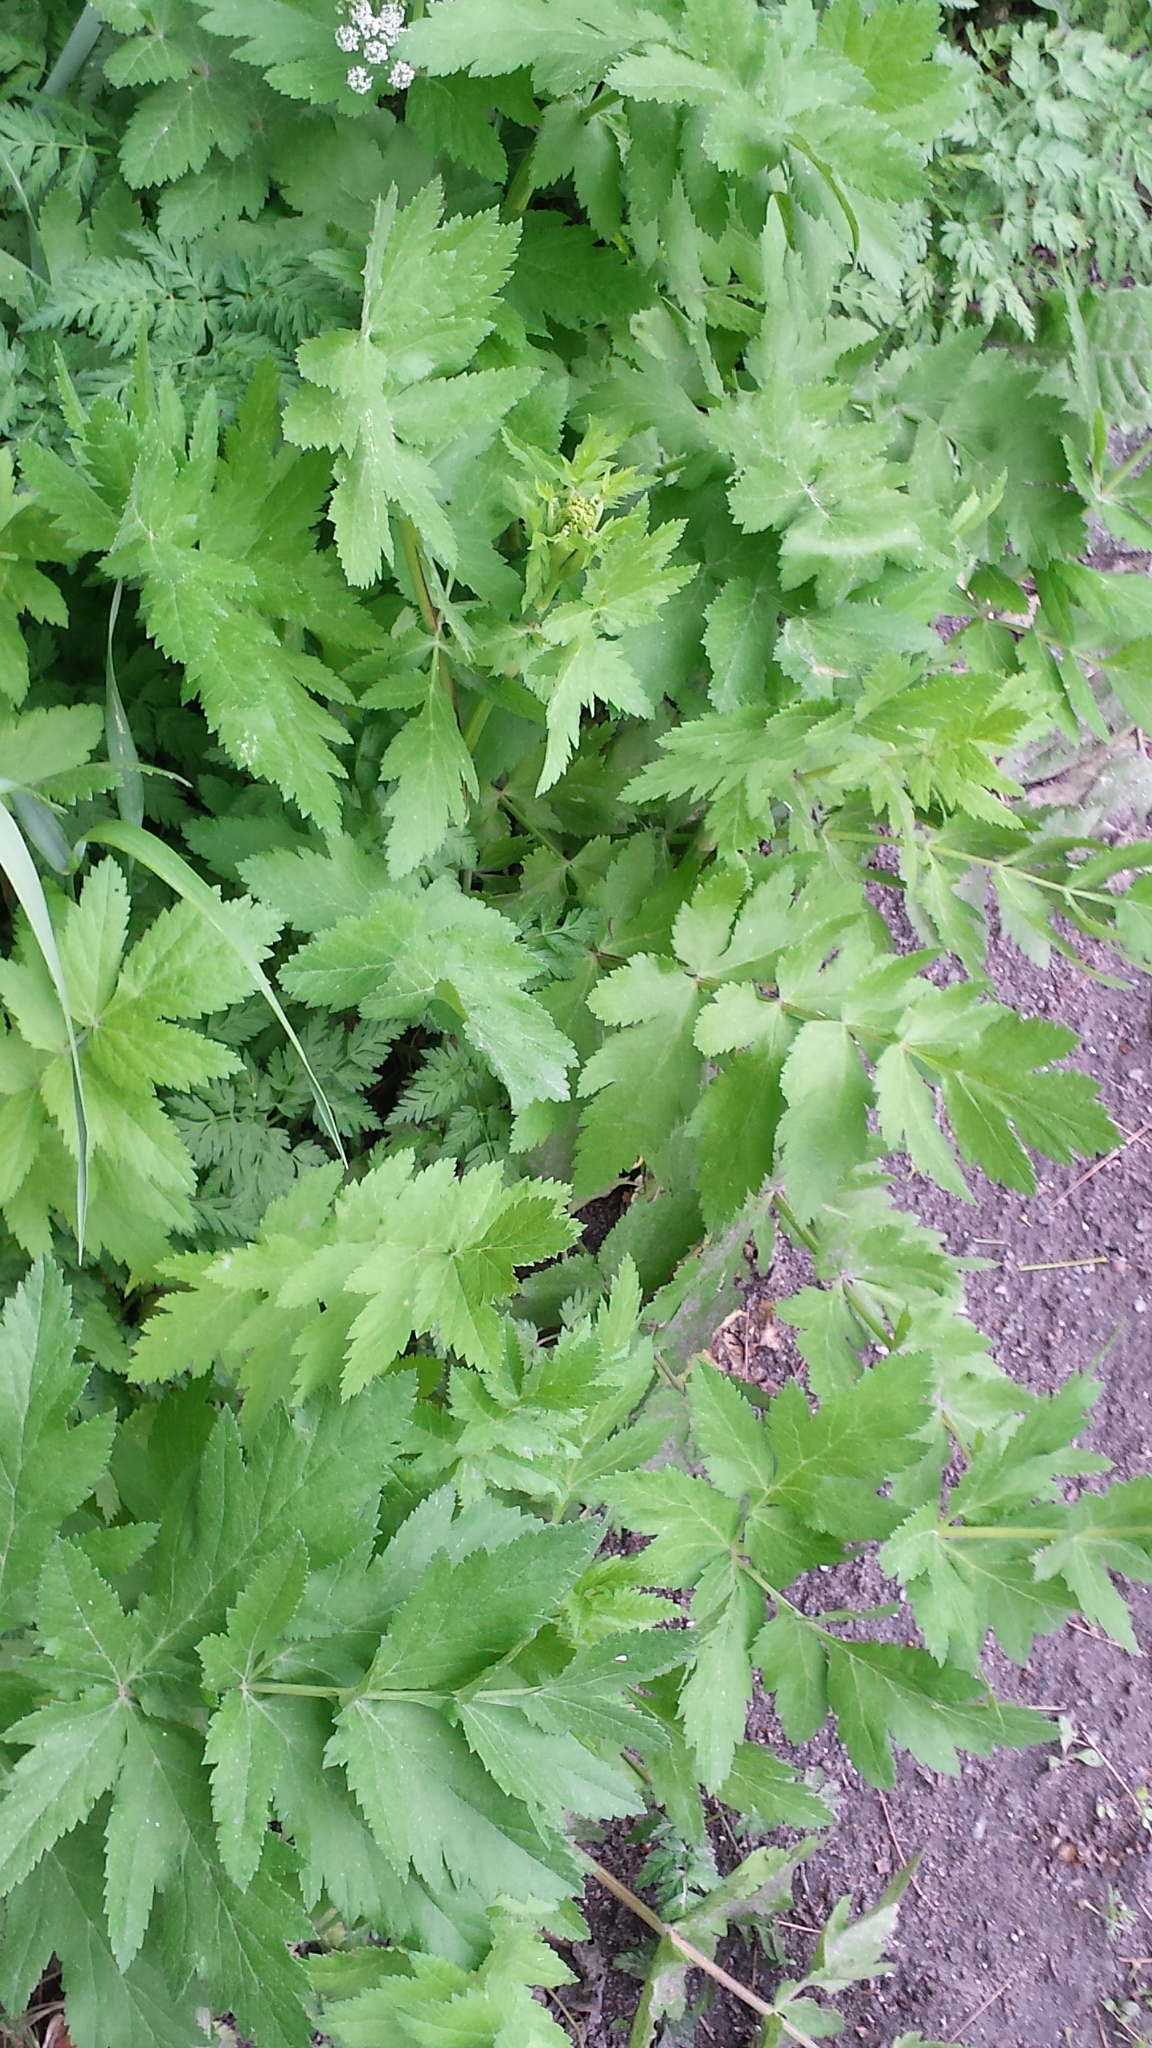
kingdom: Plantae
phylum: Tracheophyta
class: Magnoliopsida
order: Apiales
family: Apiaceae
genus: Pastinaca
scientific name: Pastinaca sativa
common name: Wild parsnip
